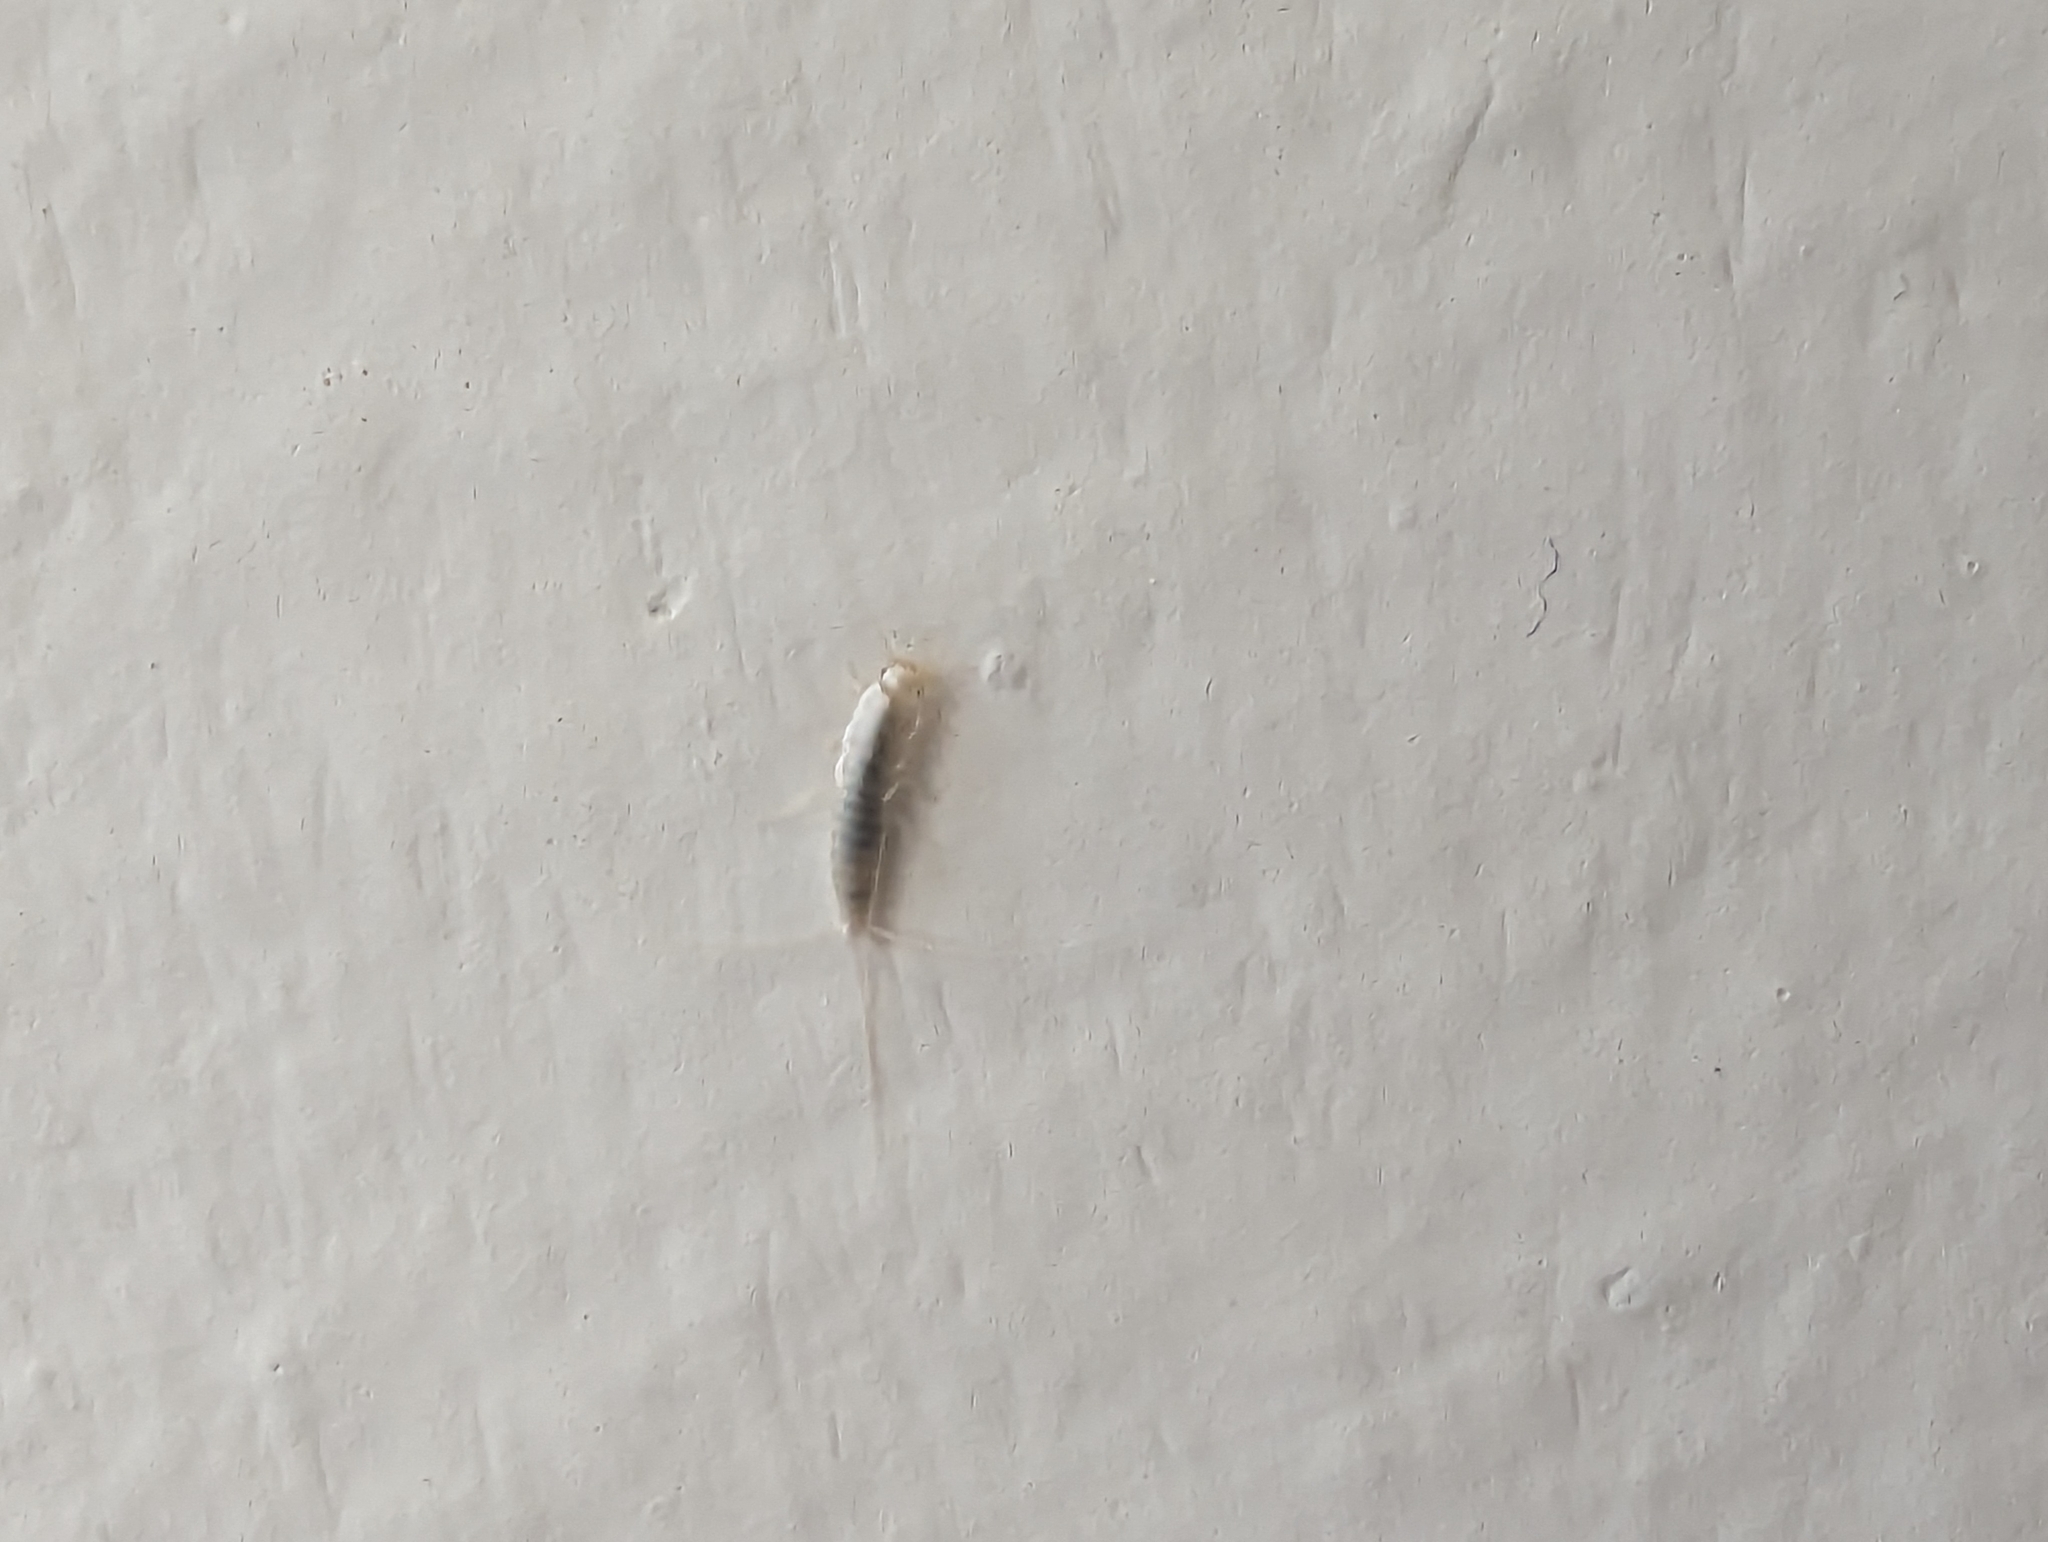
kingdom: Animalia
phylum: Arthropoda
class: Insecta
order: Zygentoma
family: Lepismatidae
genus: Ctenolepisma
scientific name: Ctenolepisma calvum
